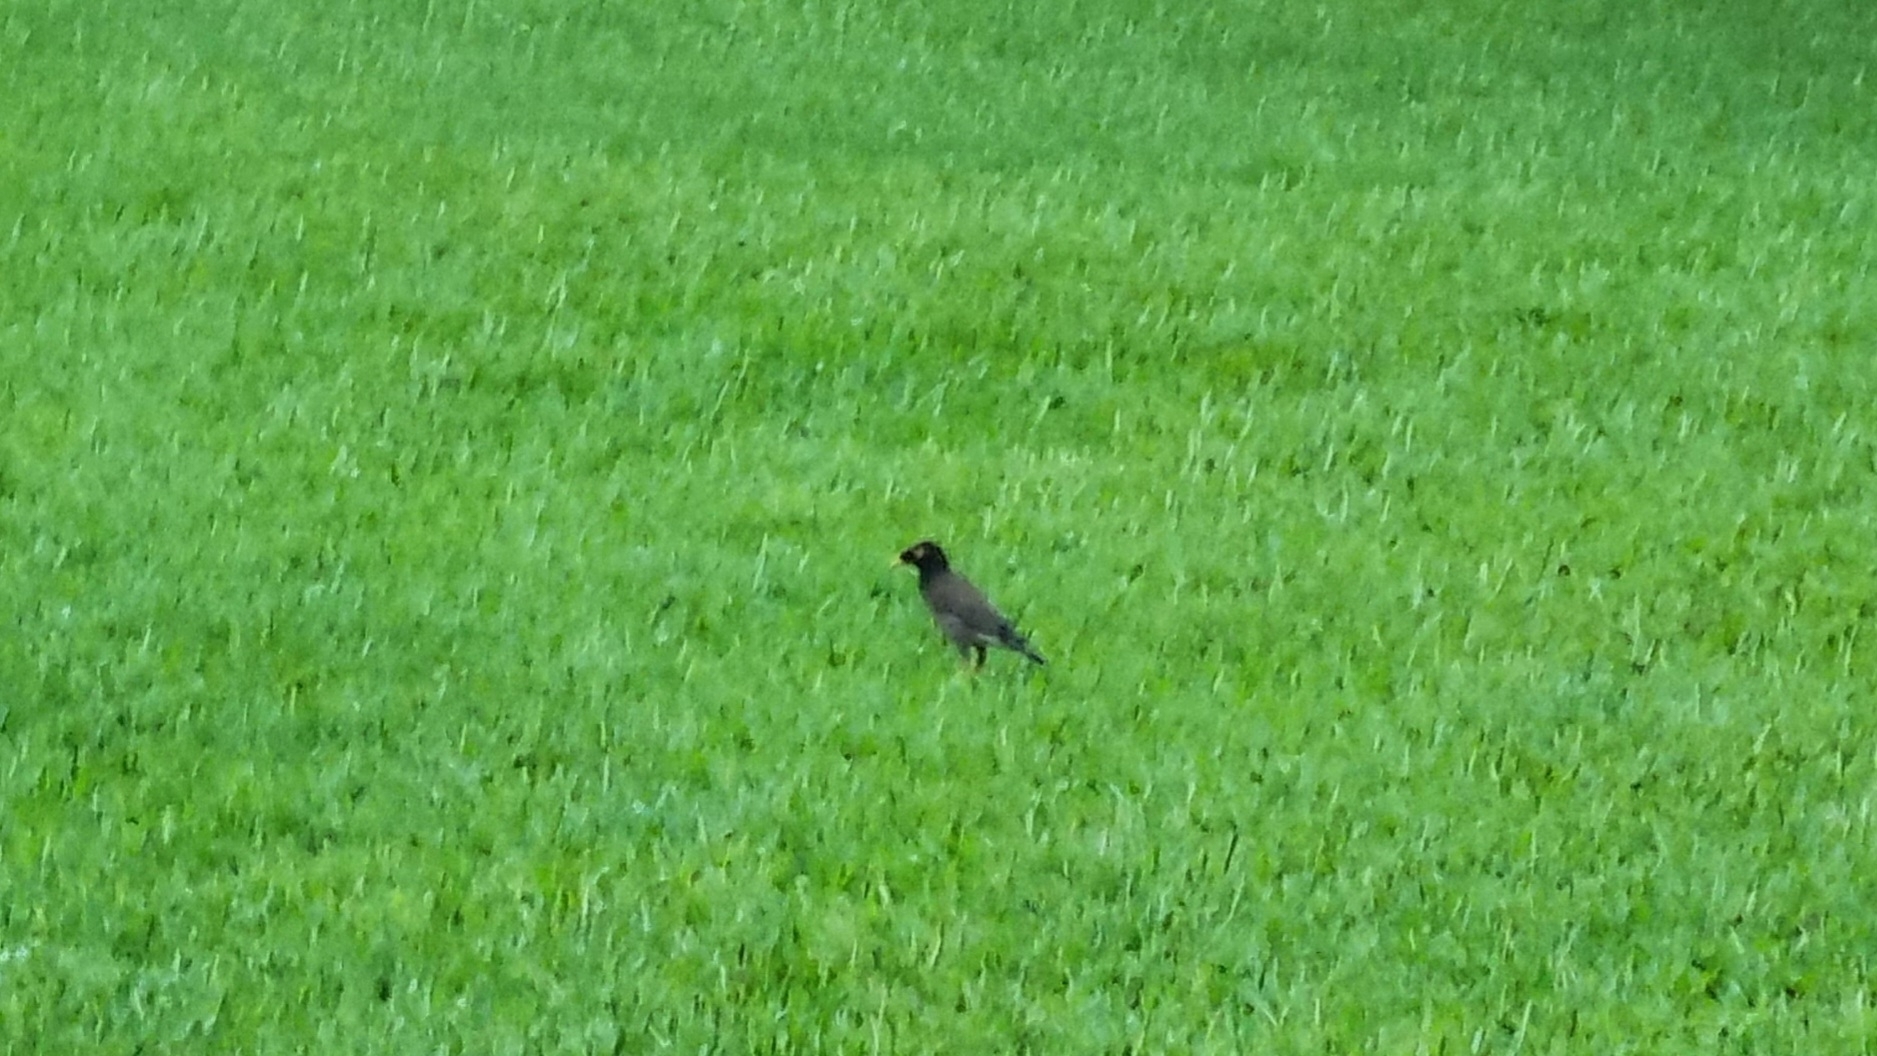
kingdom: Animalia
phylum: Chordata
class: Aves
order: Passeriformes
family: Sturnidae
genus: Acridotheres
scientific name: Acridotheres tristis
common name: Common myna
